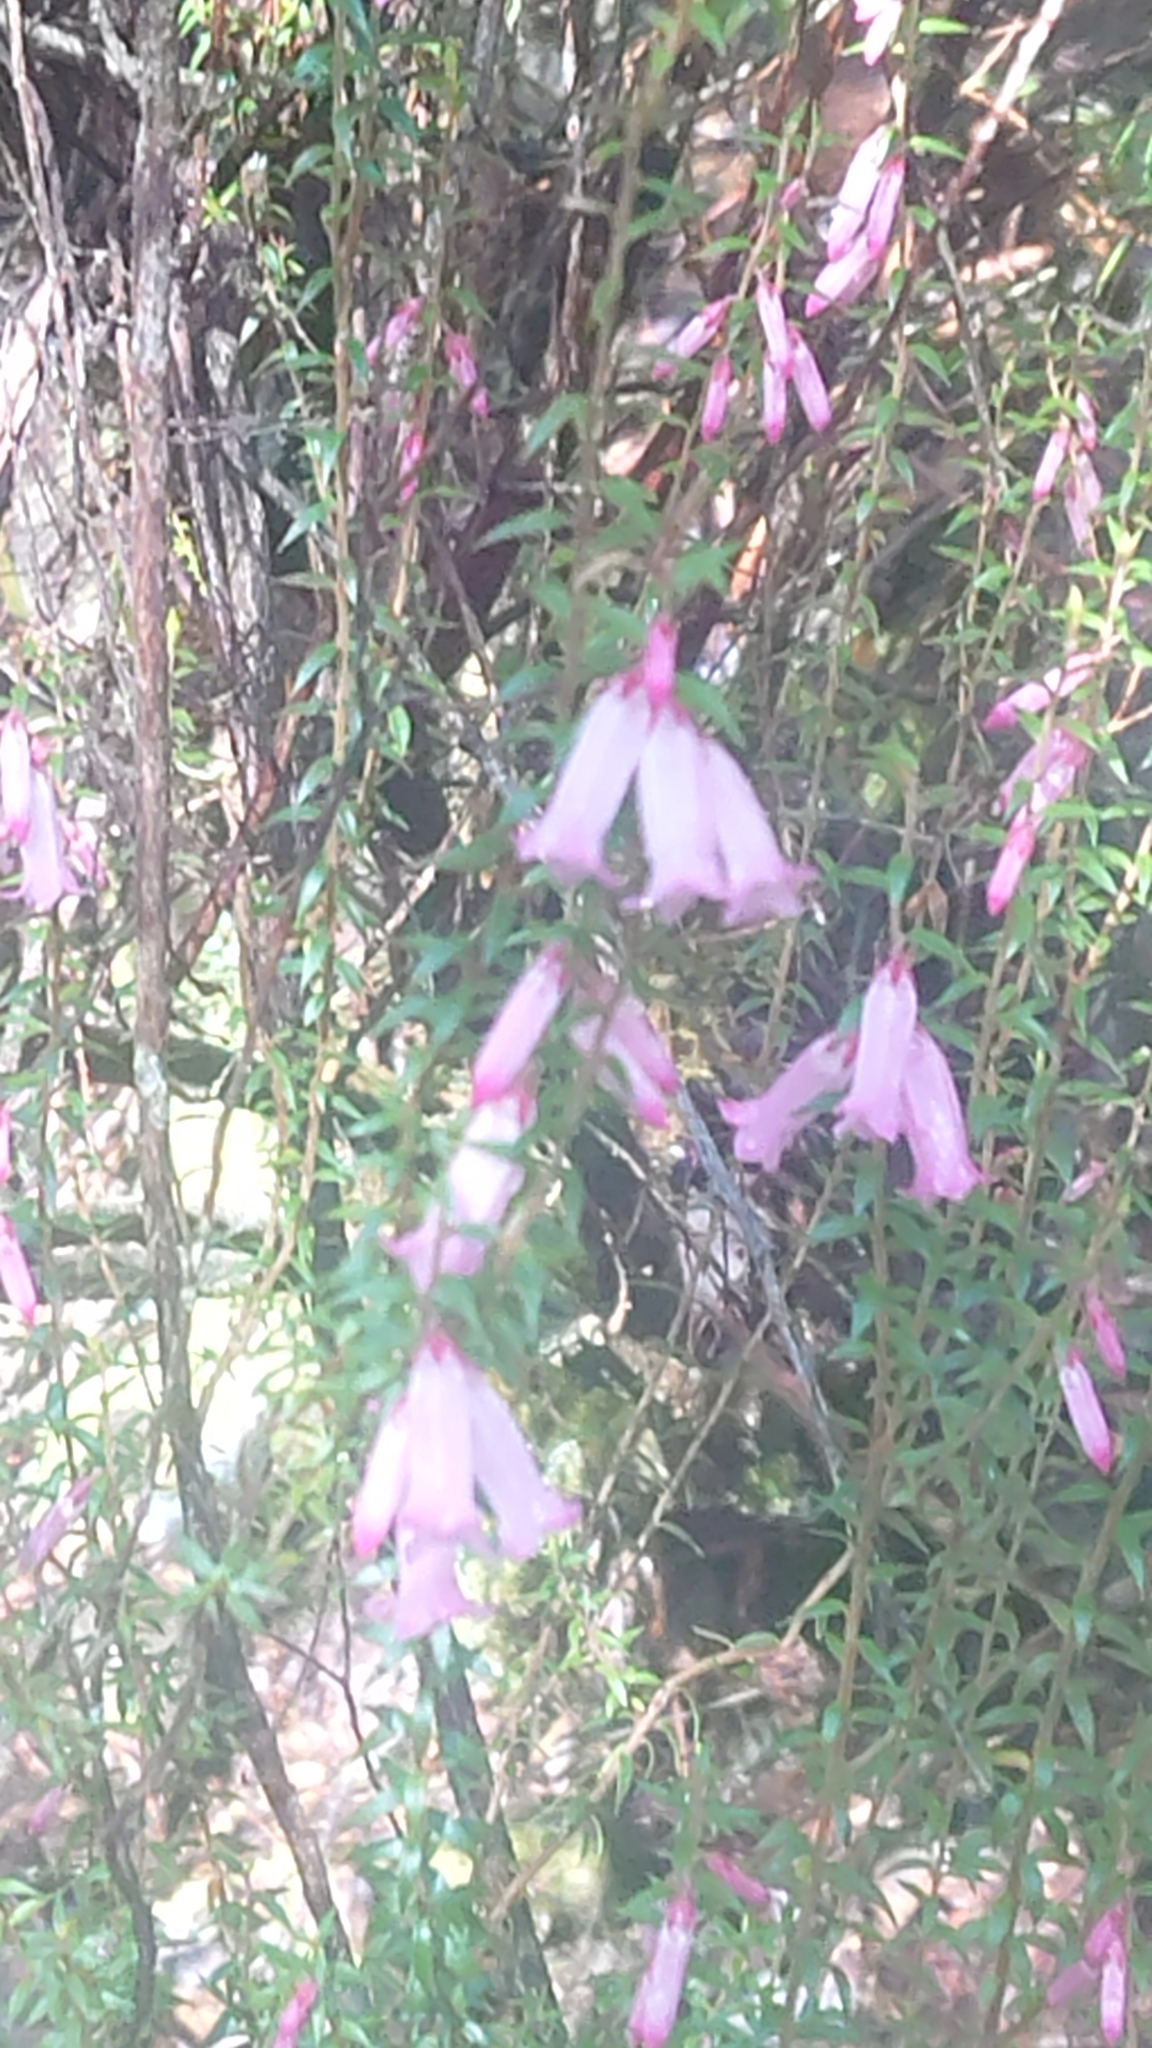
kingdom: Plantae
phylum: Tracheophyta
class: Magnoliopsida
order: Ericales
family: Ericaceae
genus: Epacris
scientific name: Epacris impressa
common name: Common-heath
